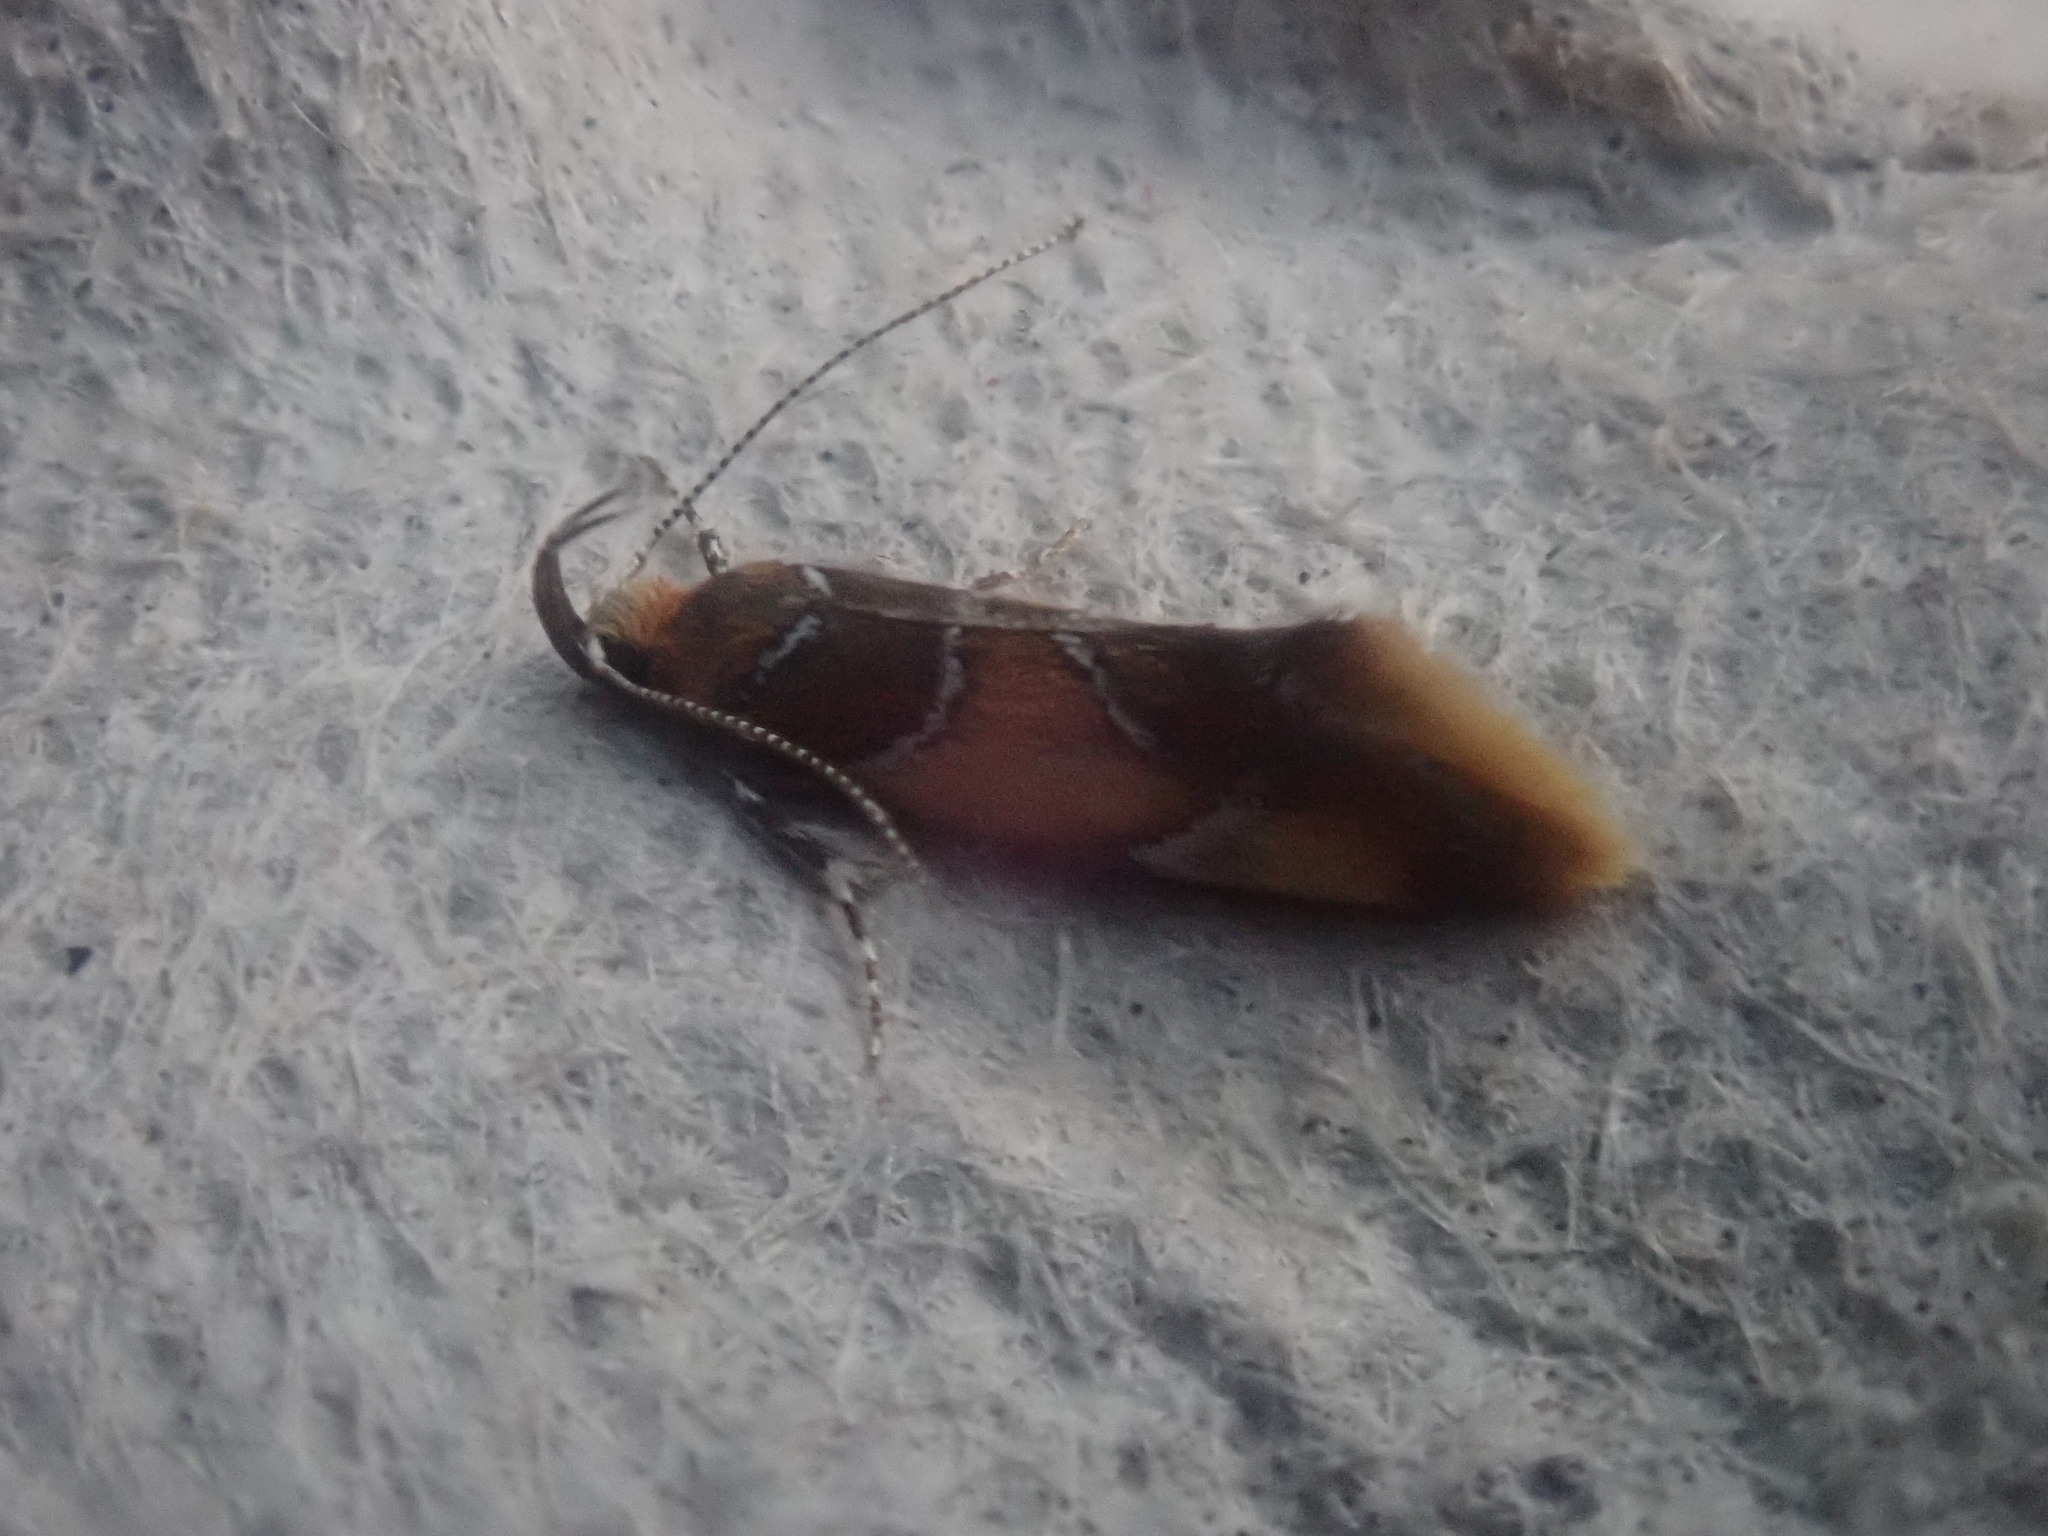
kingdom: Animalia
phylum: Arthropoda
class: Insecta
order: Lepidoptera
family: Oecophoridae
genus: Callima
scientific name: Callima argenticinctella
